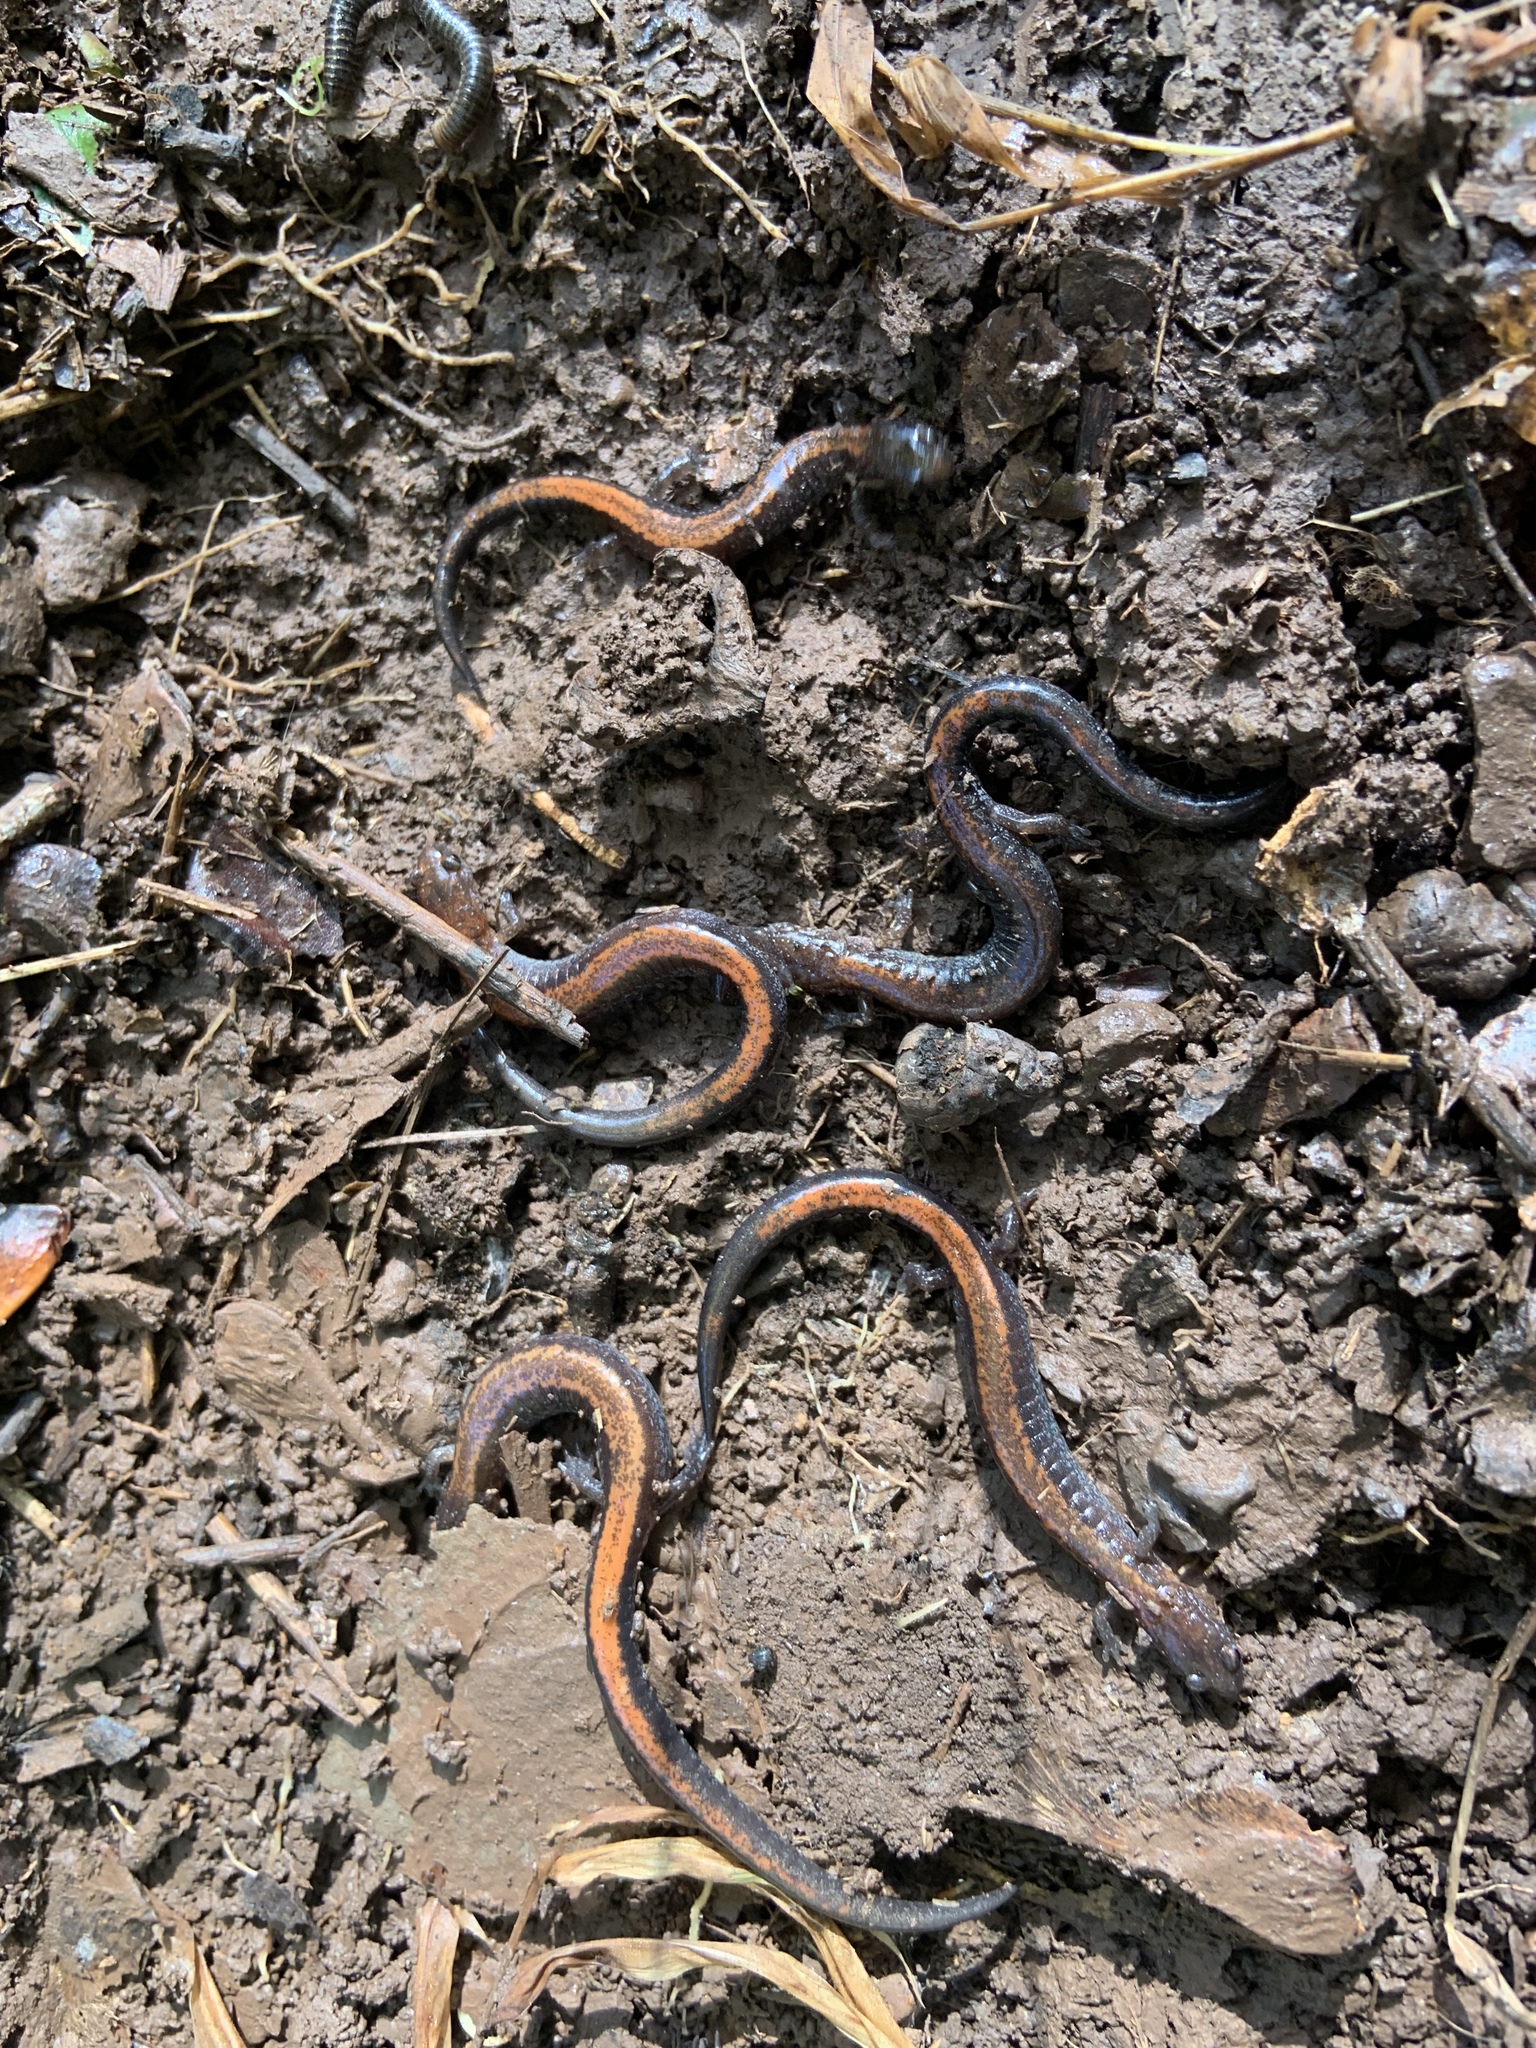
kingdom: Animalia
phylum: Chordata
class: Amphibia
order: Caudata
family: Plethodontidae
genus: Plethodon
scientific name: Plethodon cinereus
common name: Redback salamander
